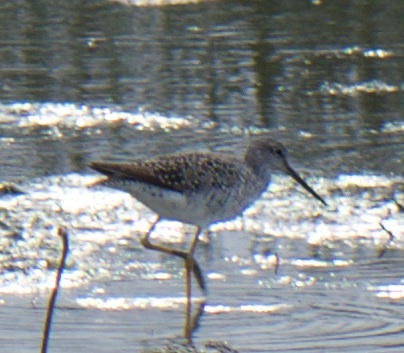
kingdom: Animalia
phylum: Chordata
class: Aves
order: Charadriiformes
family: Scolopacidae
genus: Tringa
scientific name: Tringa melanoleuca
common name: Greater yellowlegs
